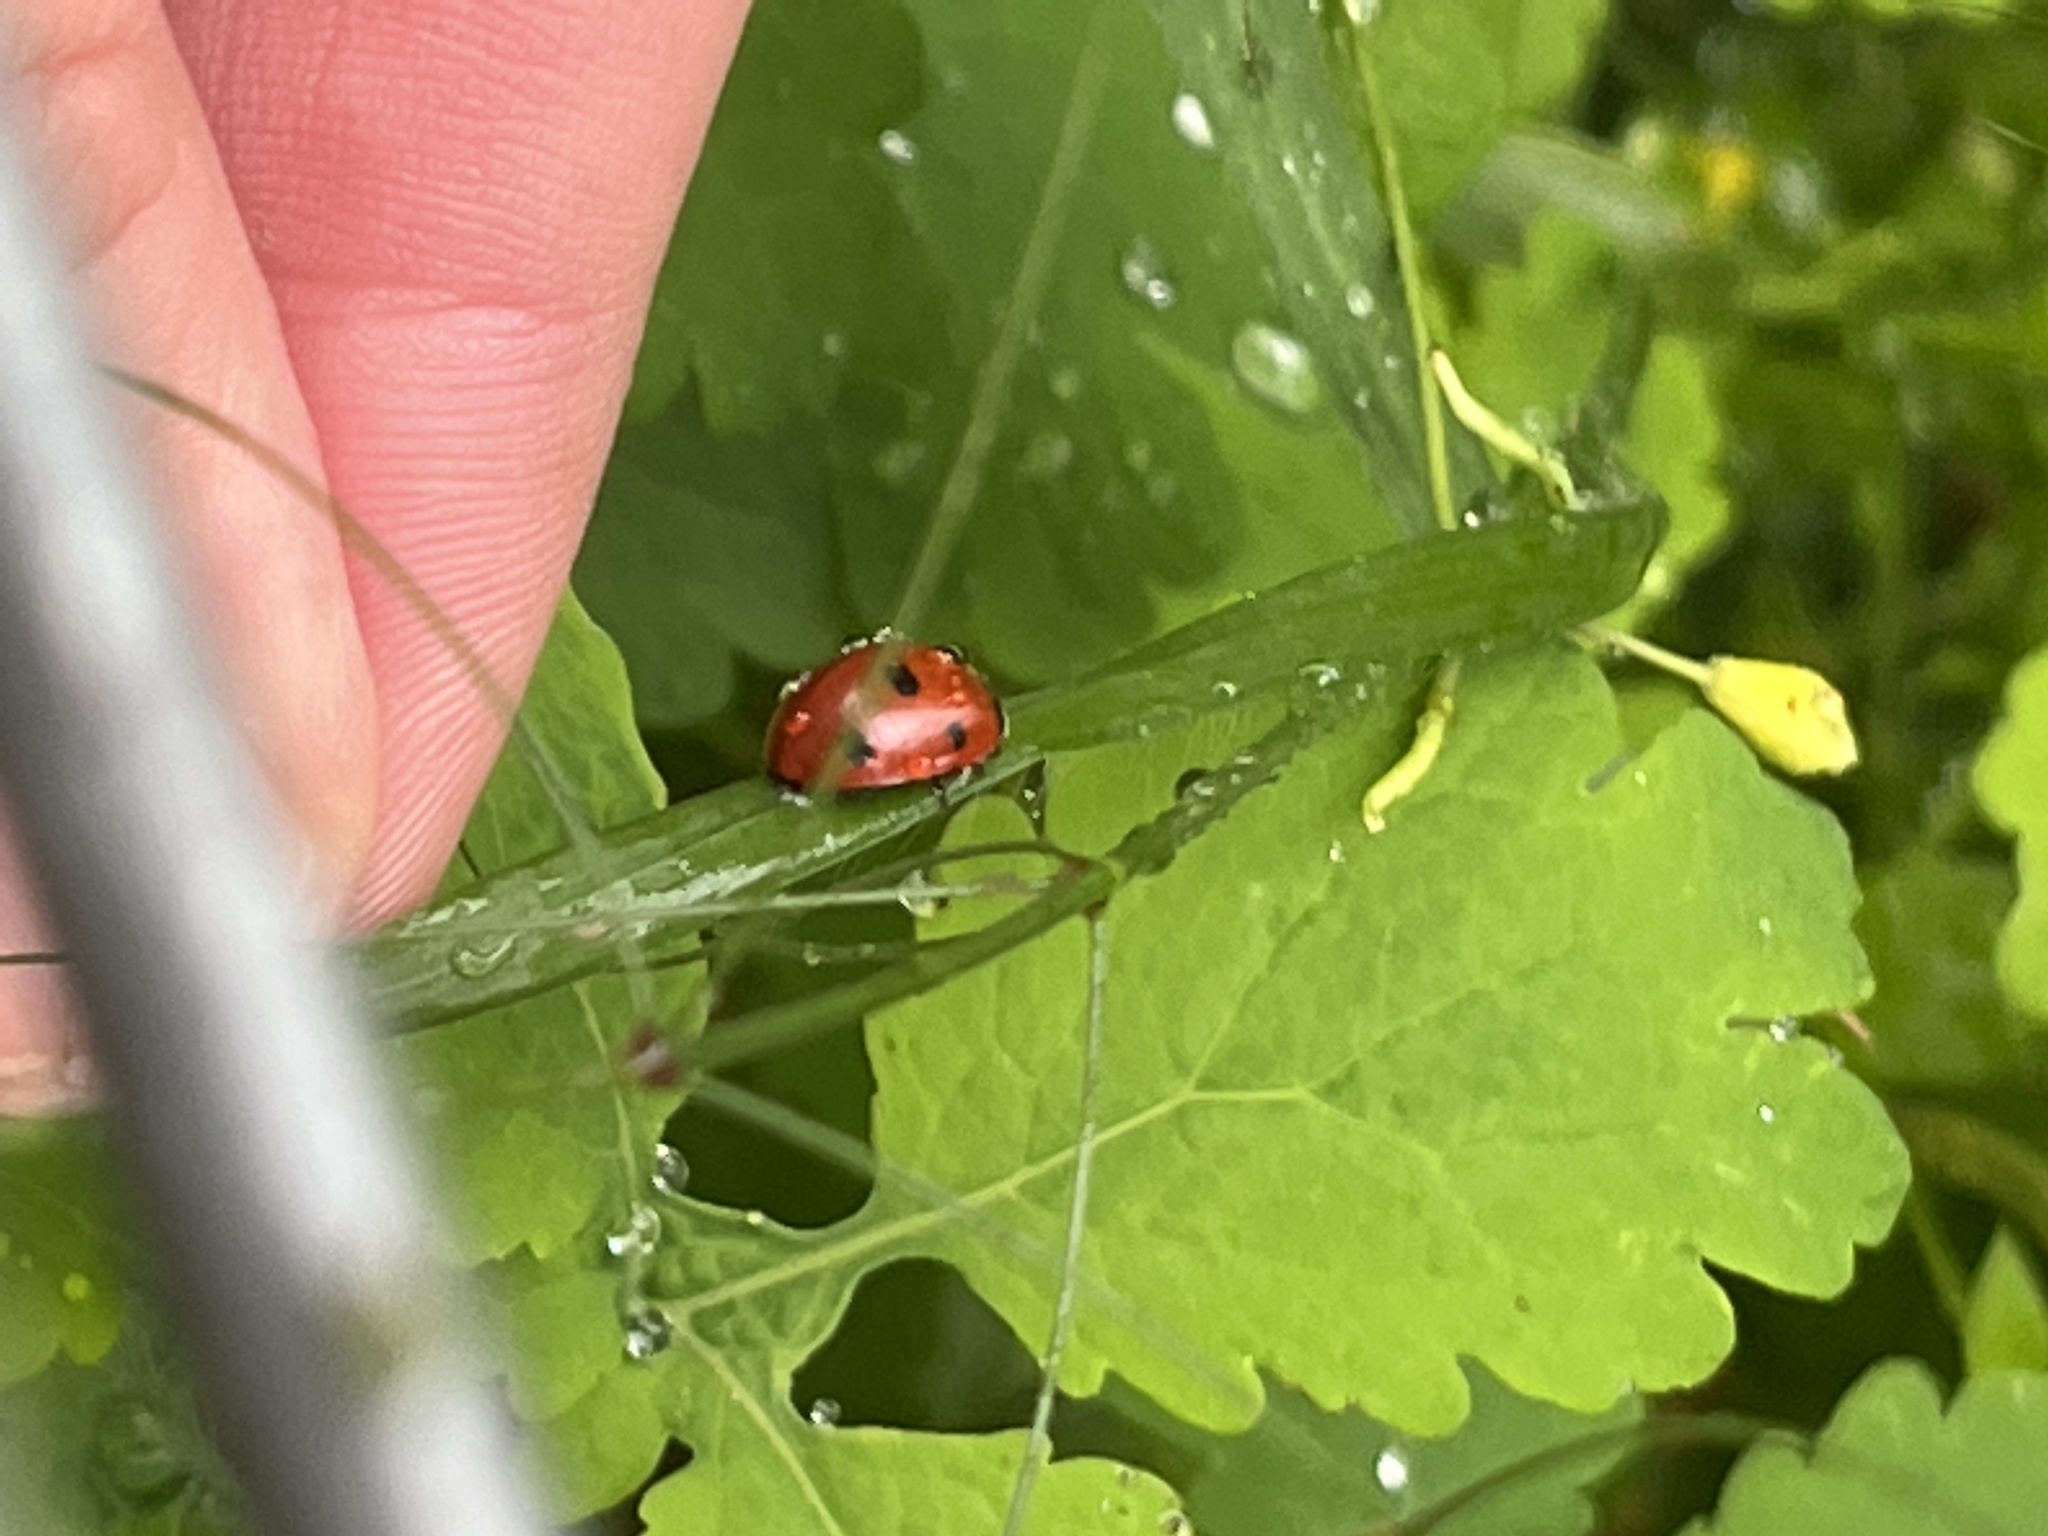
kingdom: Animalia
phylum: Arthropoda
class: Insecta
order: Coleoptera
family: Coccinellidae
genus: Coccinella
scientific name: Coccinella septempunctata
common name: Sevenspotted lady beetle
